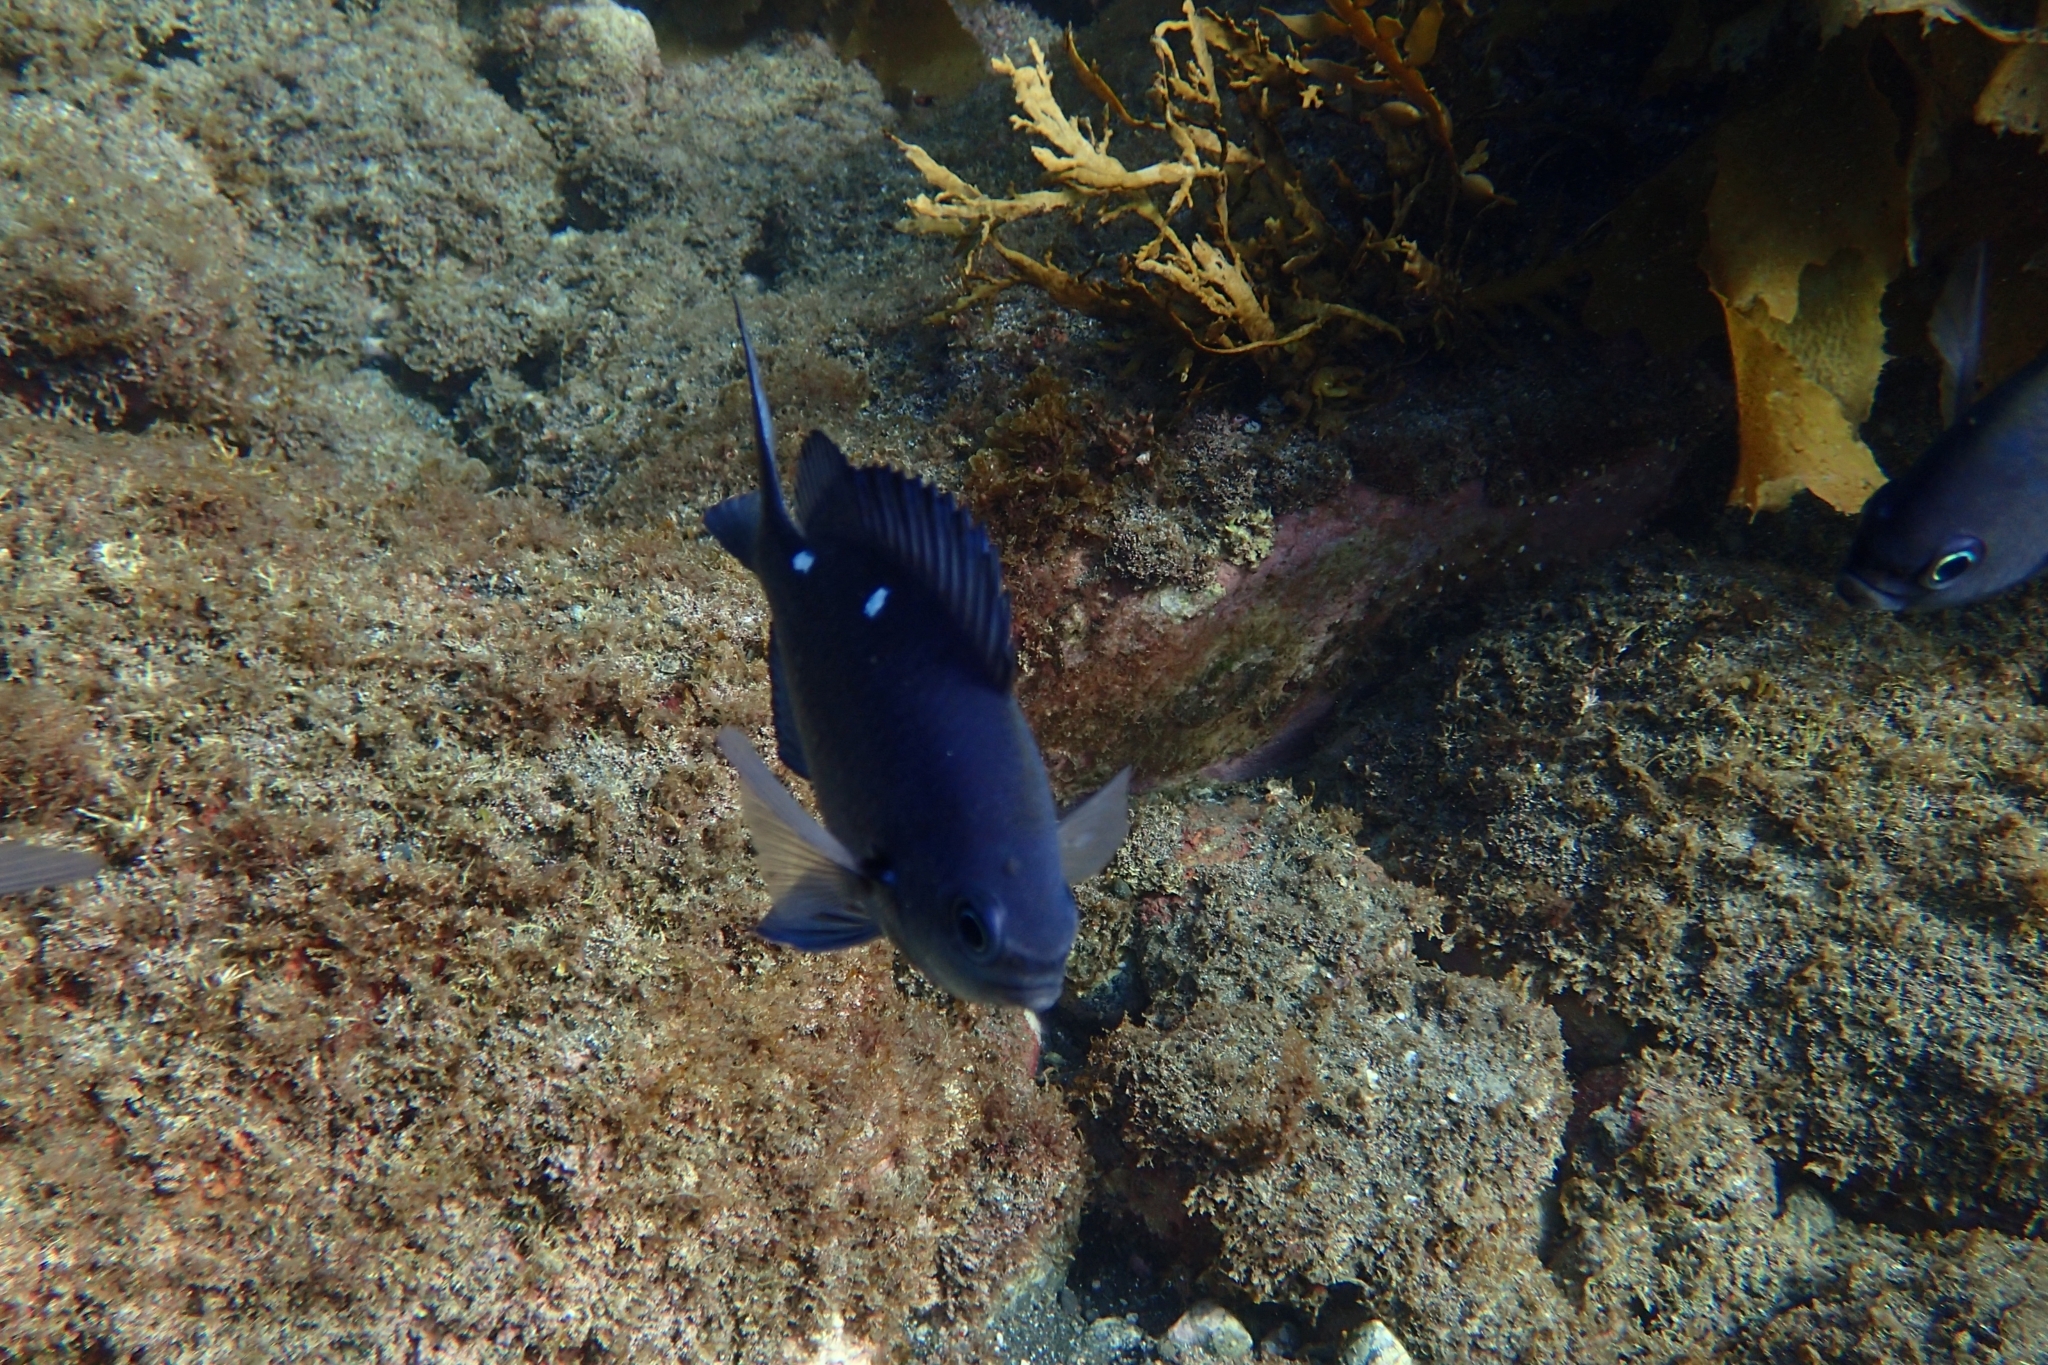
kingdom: Animalia
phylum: Chordata
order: Perciformes
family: Pomacentridae
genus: Chromis
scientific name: Chromis dispilus
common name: Demoiselle
